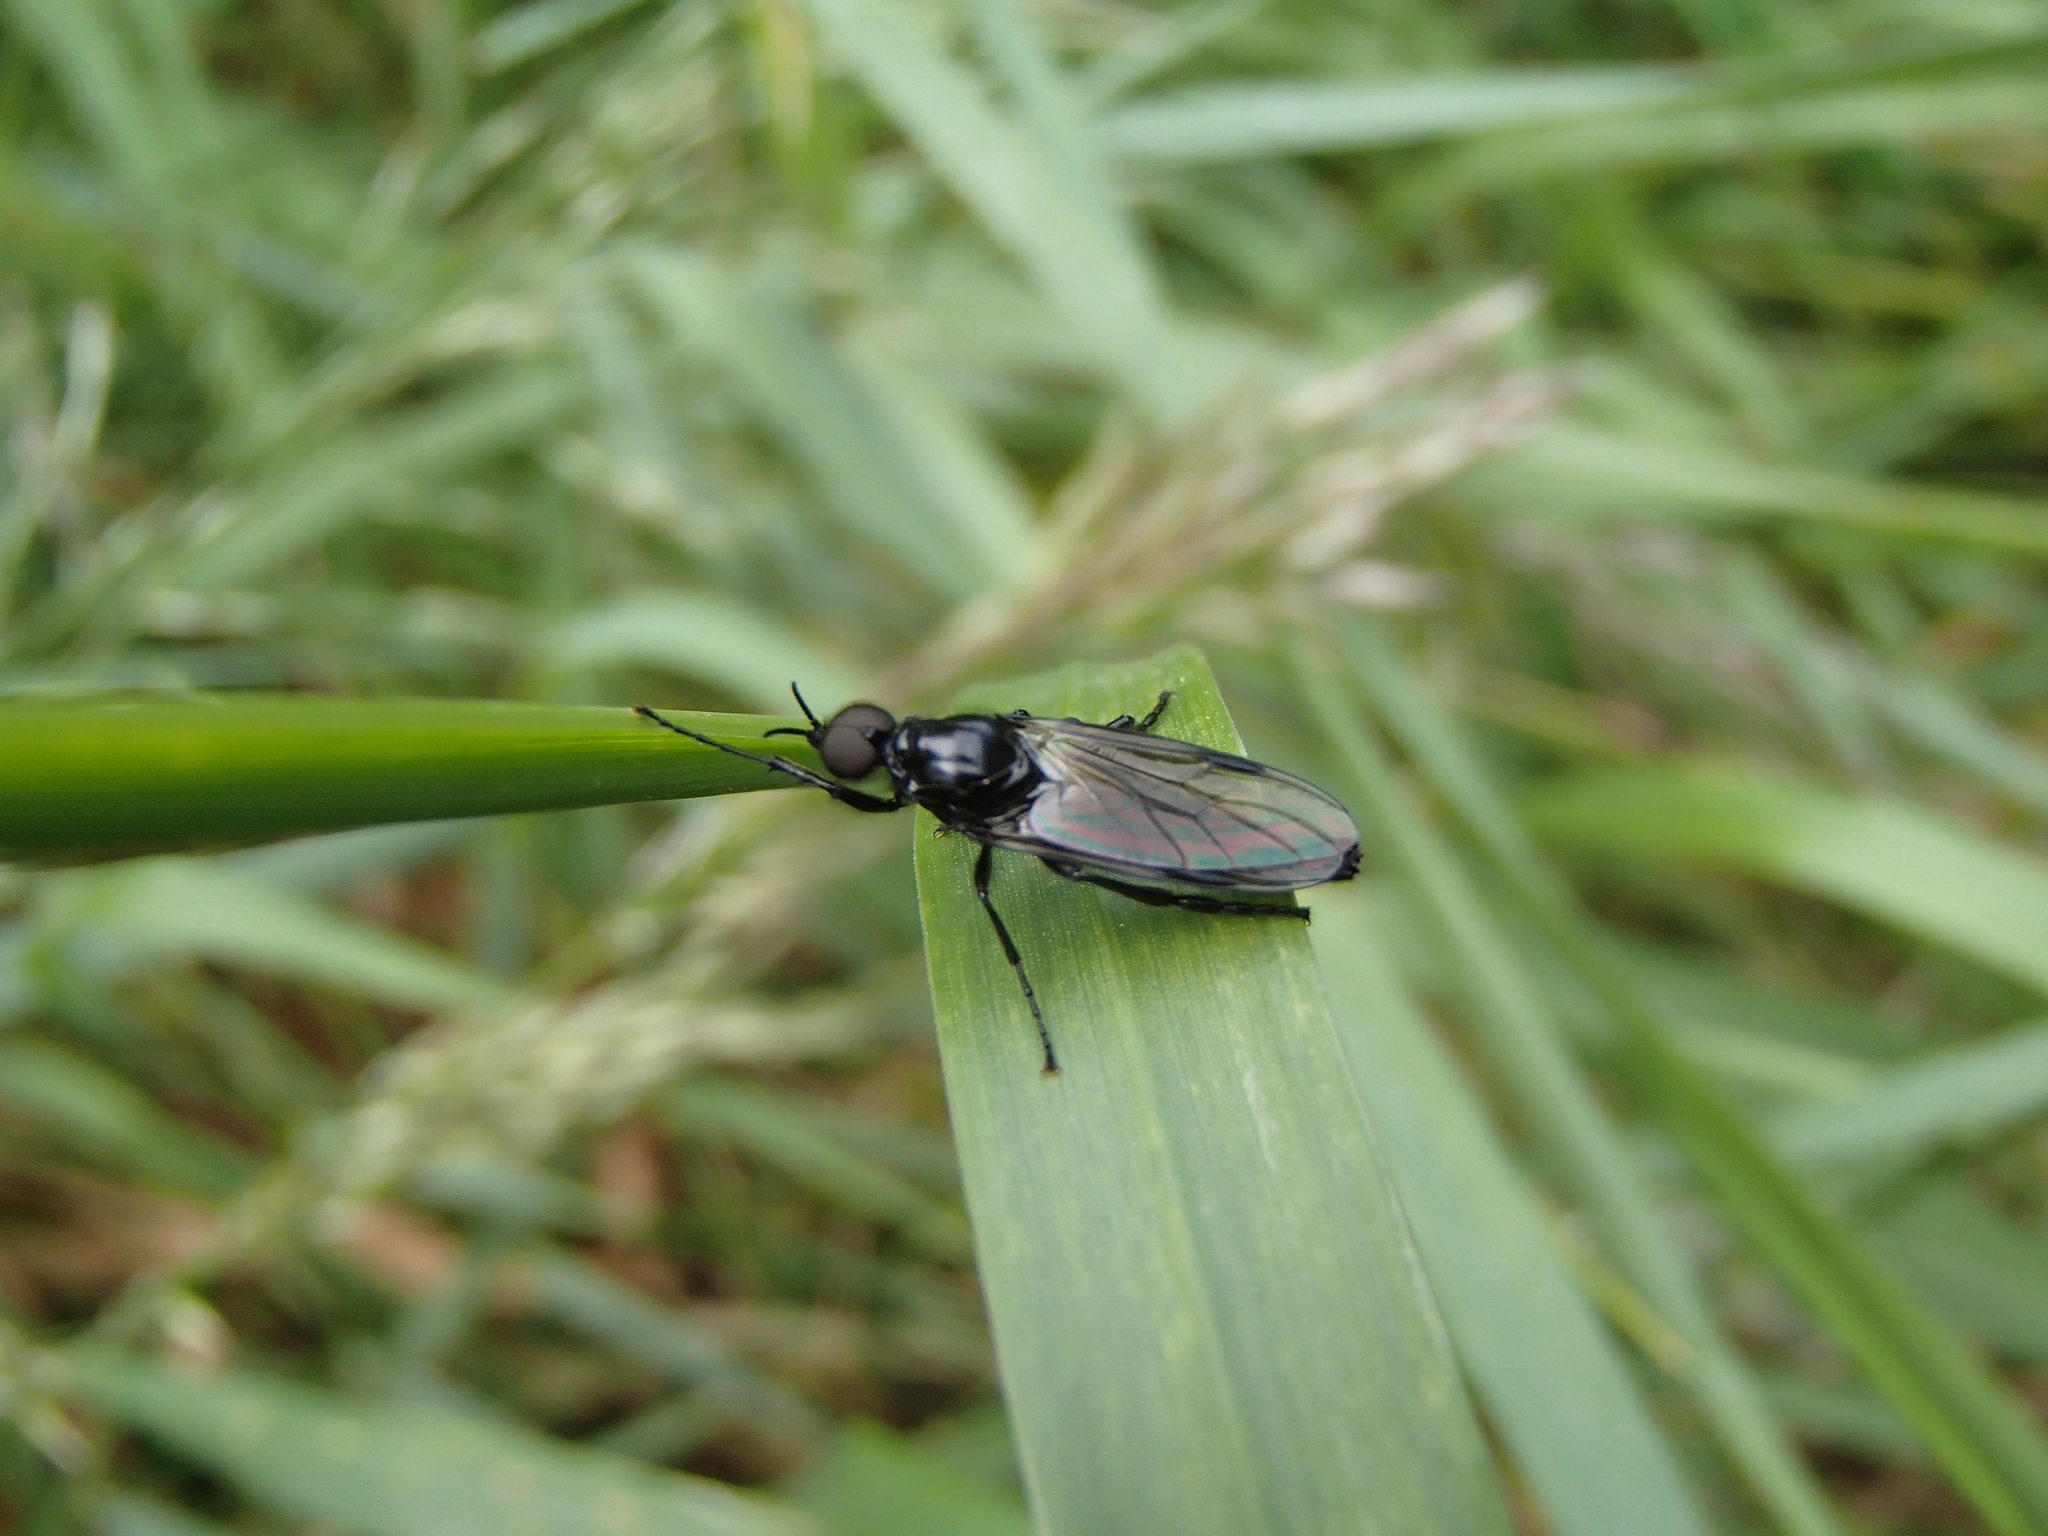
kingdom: Animalia
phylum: Arthropoda
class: Insecta
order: Diptera
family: Bibionidae
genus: Dilophus
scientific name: Dilophus nigrostigma
